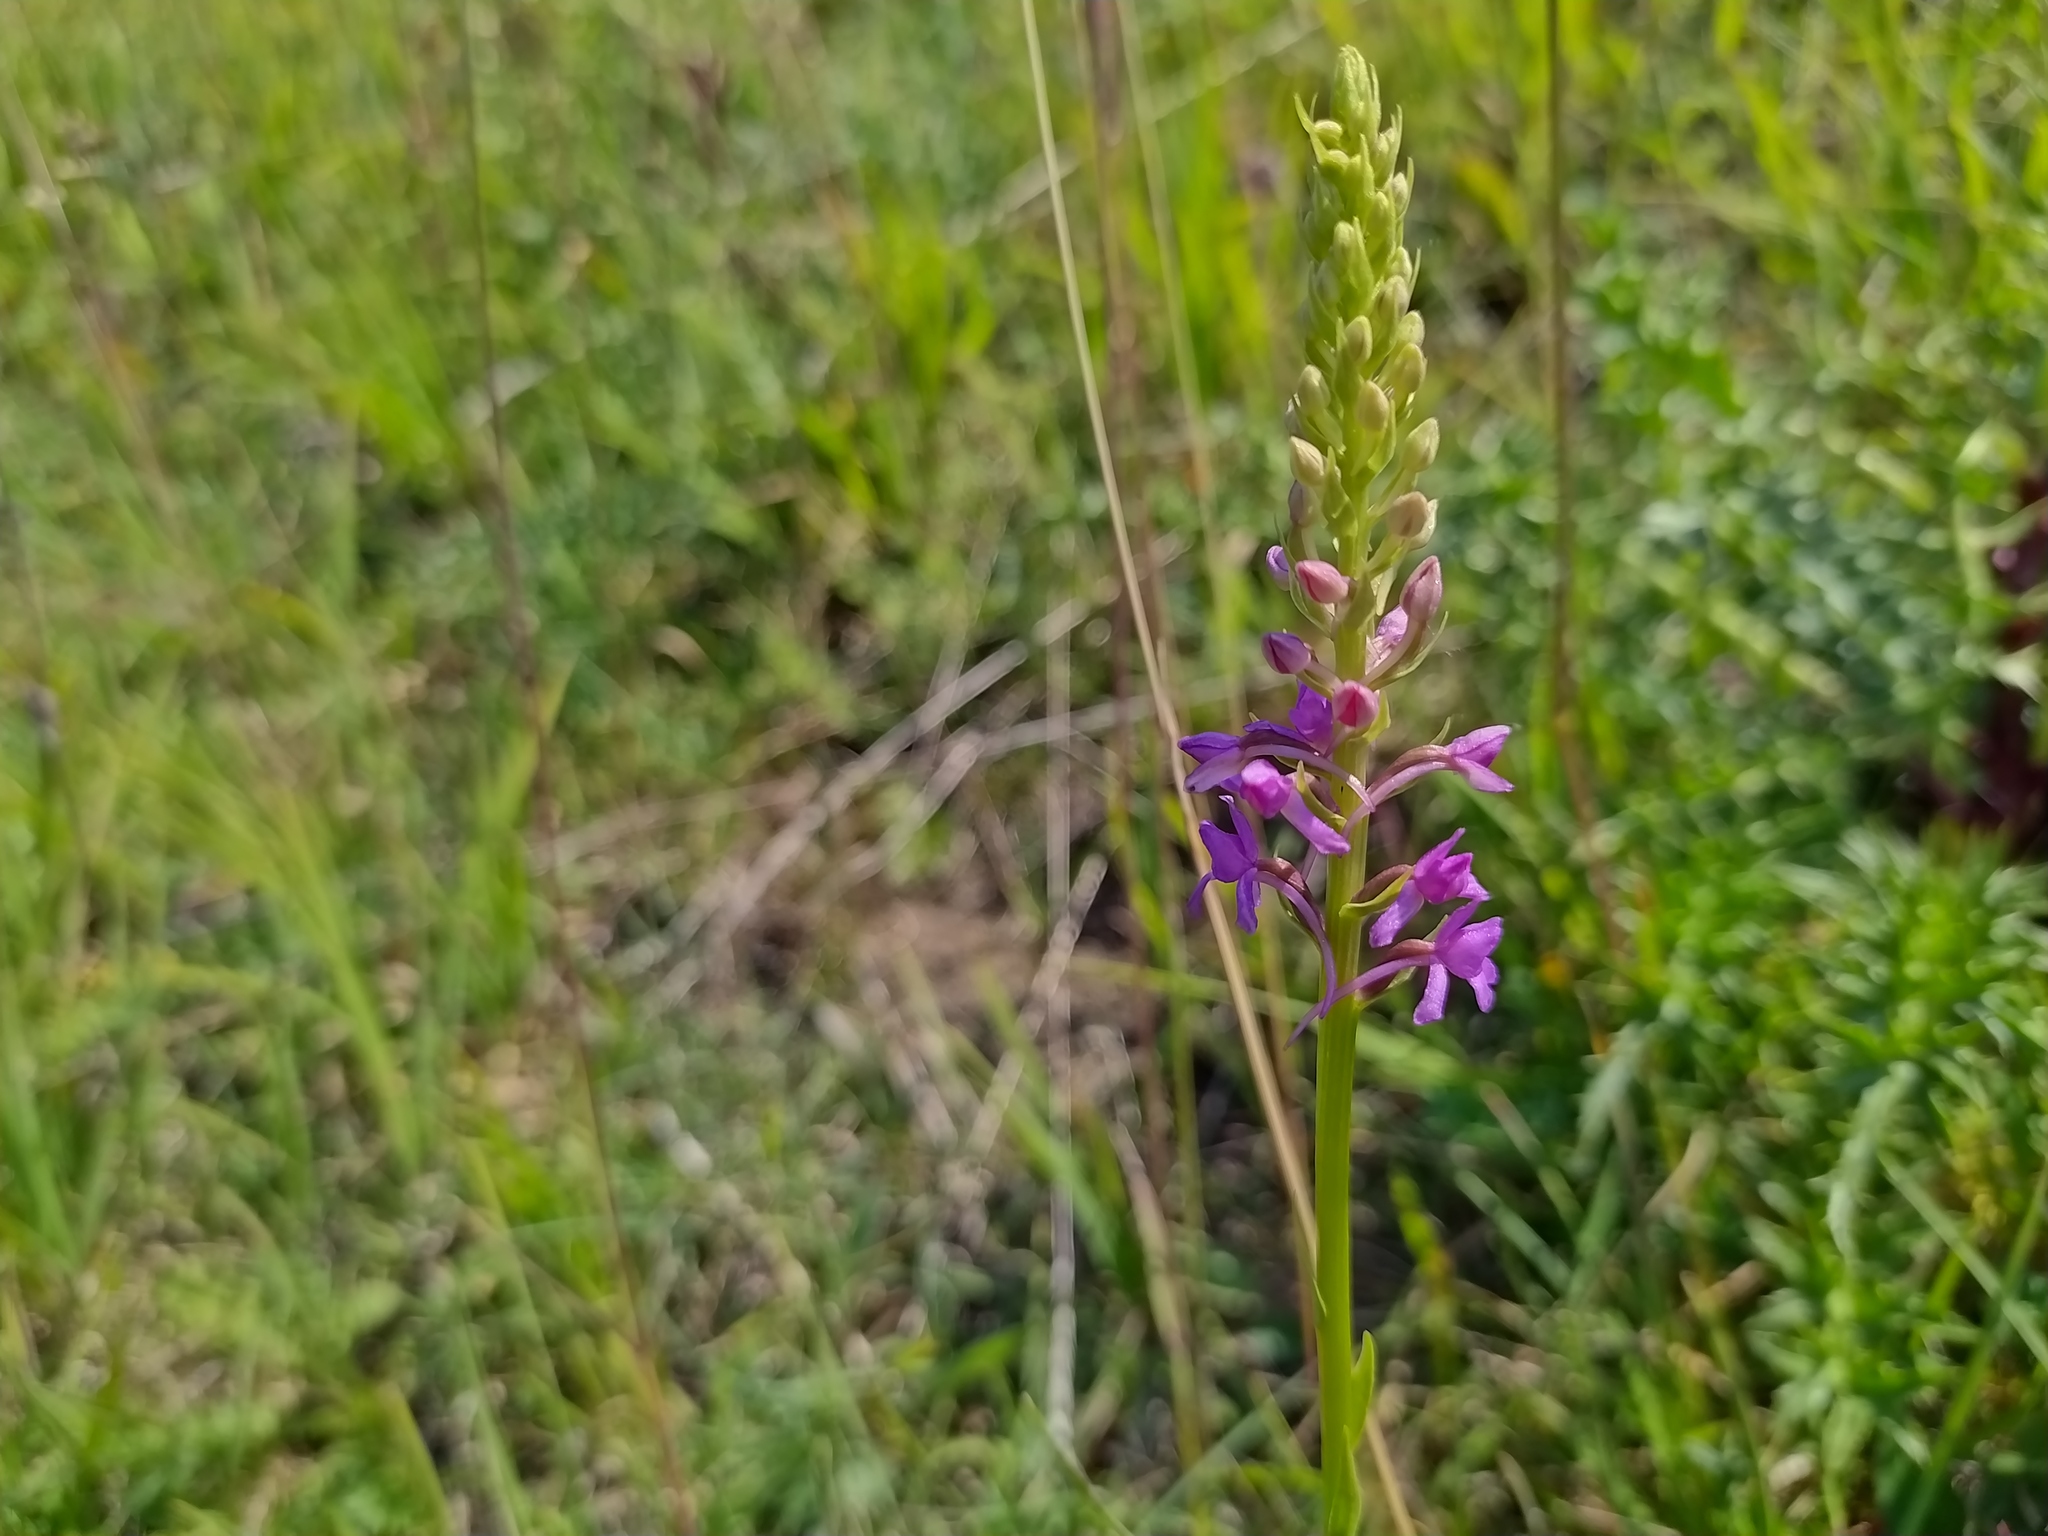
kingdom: Plantae
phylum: Tracheophyta
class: Liliopsida
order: Asparagales
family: Orchidaceae
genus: Gymnadenia
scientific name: Gymnadenia conopsea
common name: Fragrant orchid
